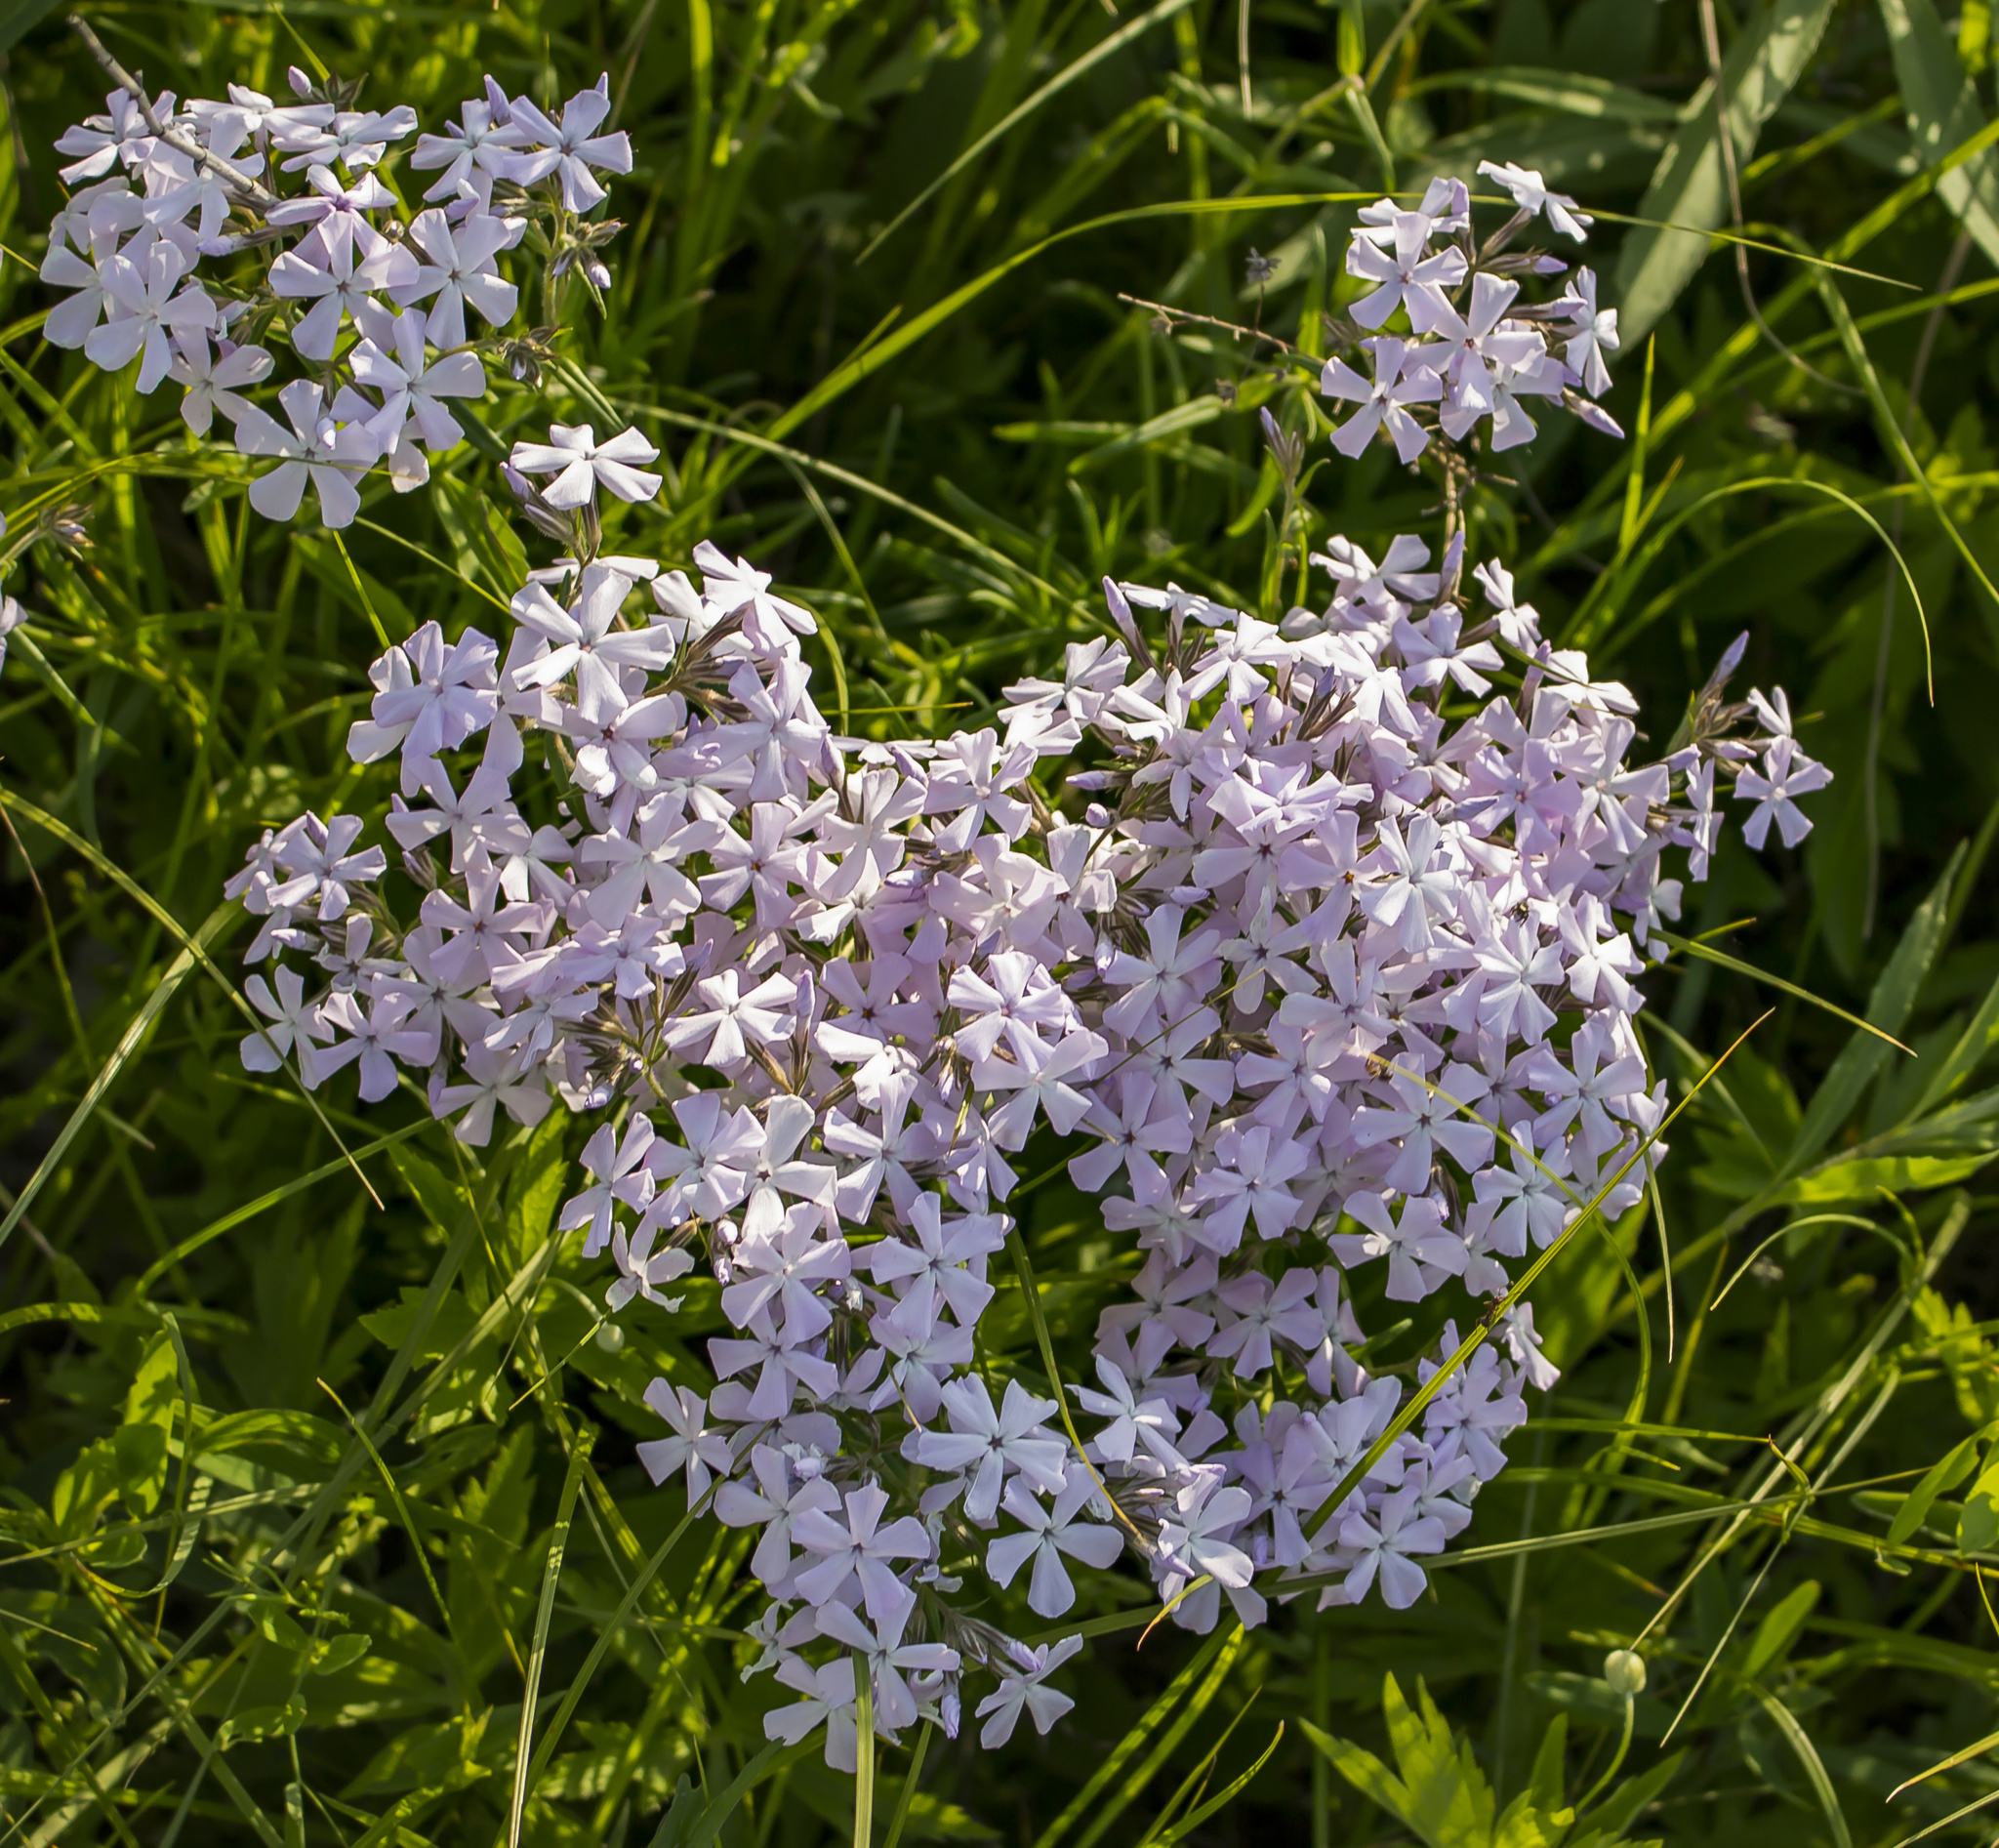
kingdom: Plantae
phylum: Tracheophyta
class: Magnoliopsida
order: Ericales
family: Polemoniaceae
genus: Phlox
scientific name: Phlox pilosa
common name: Prairie phlox
